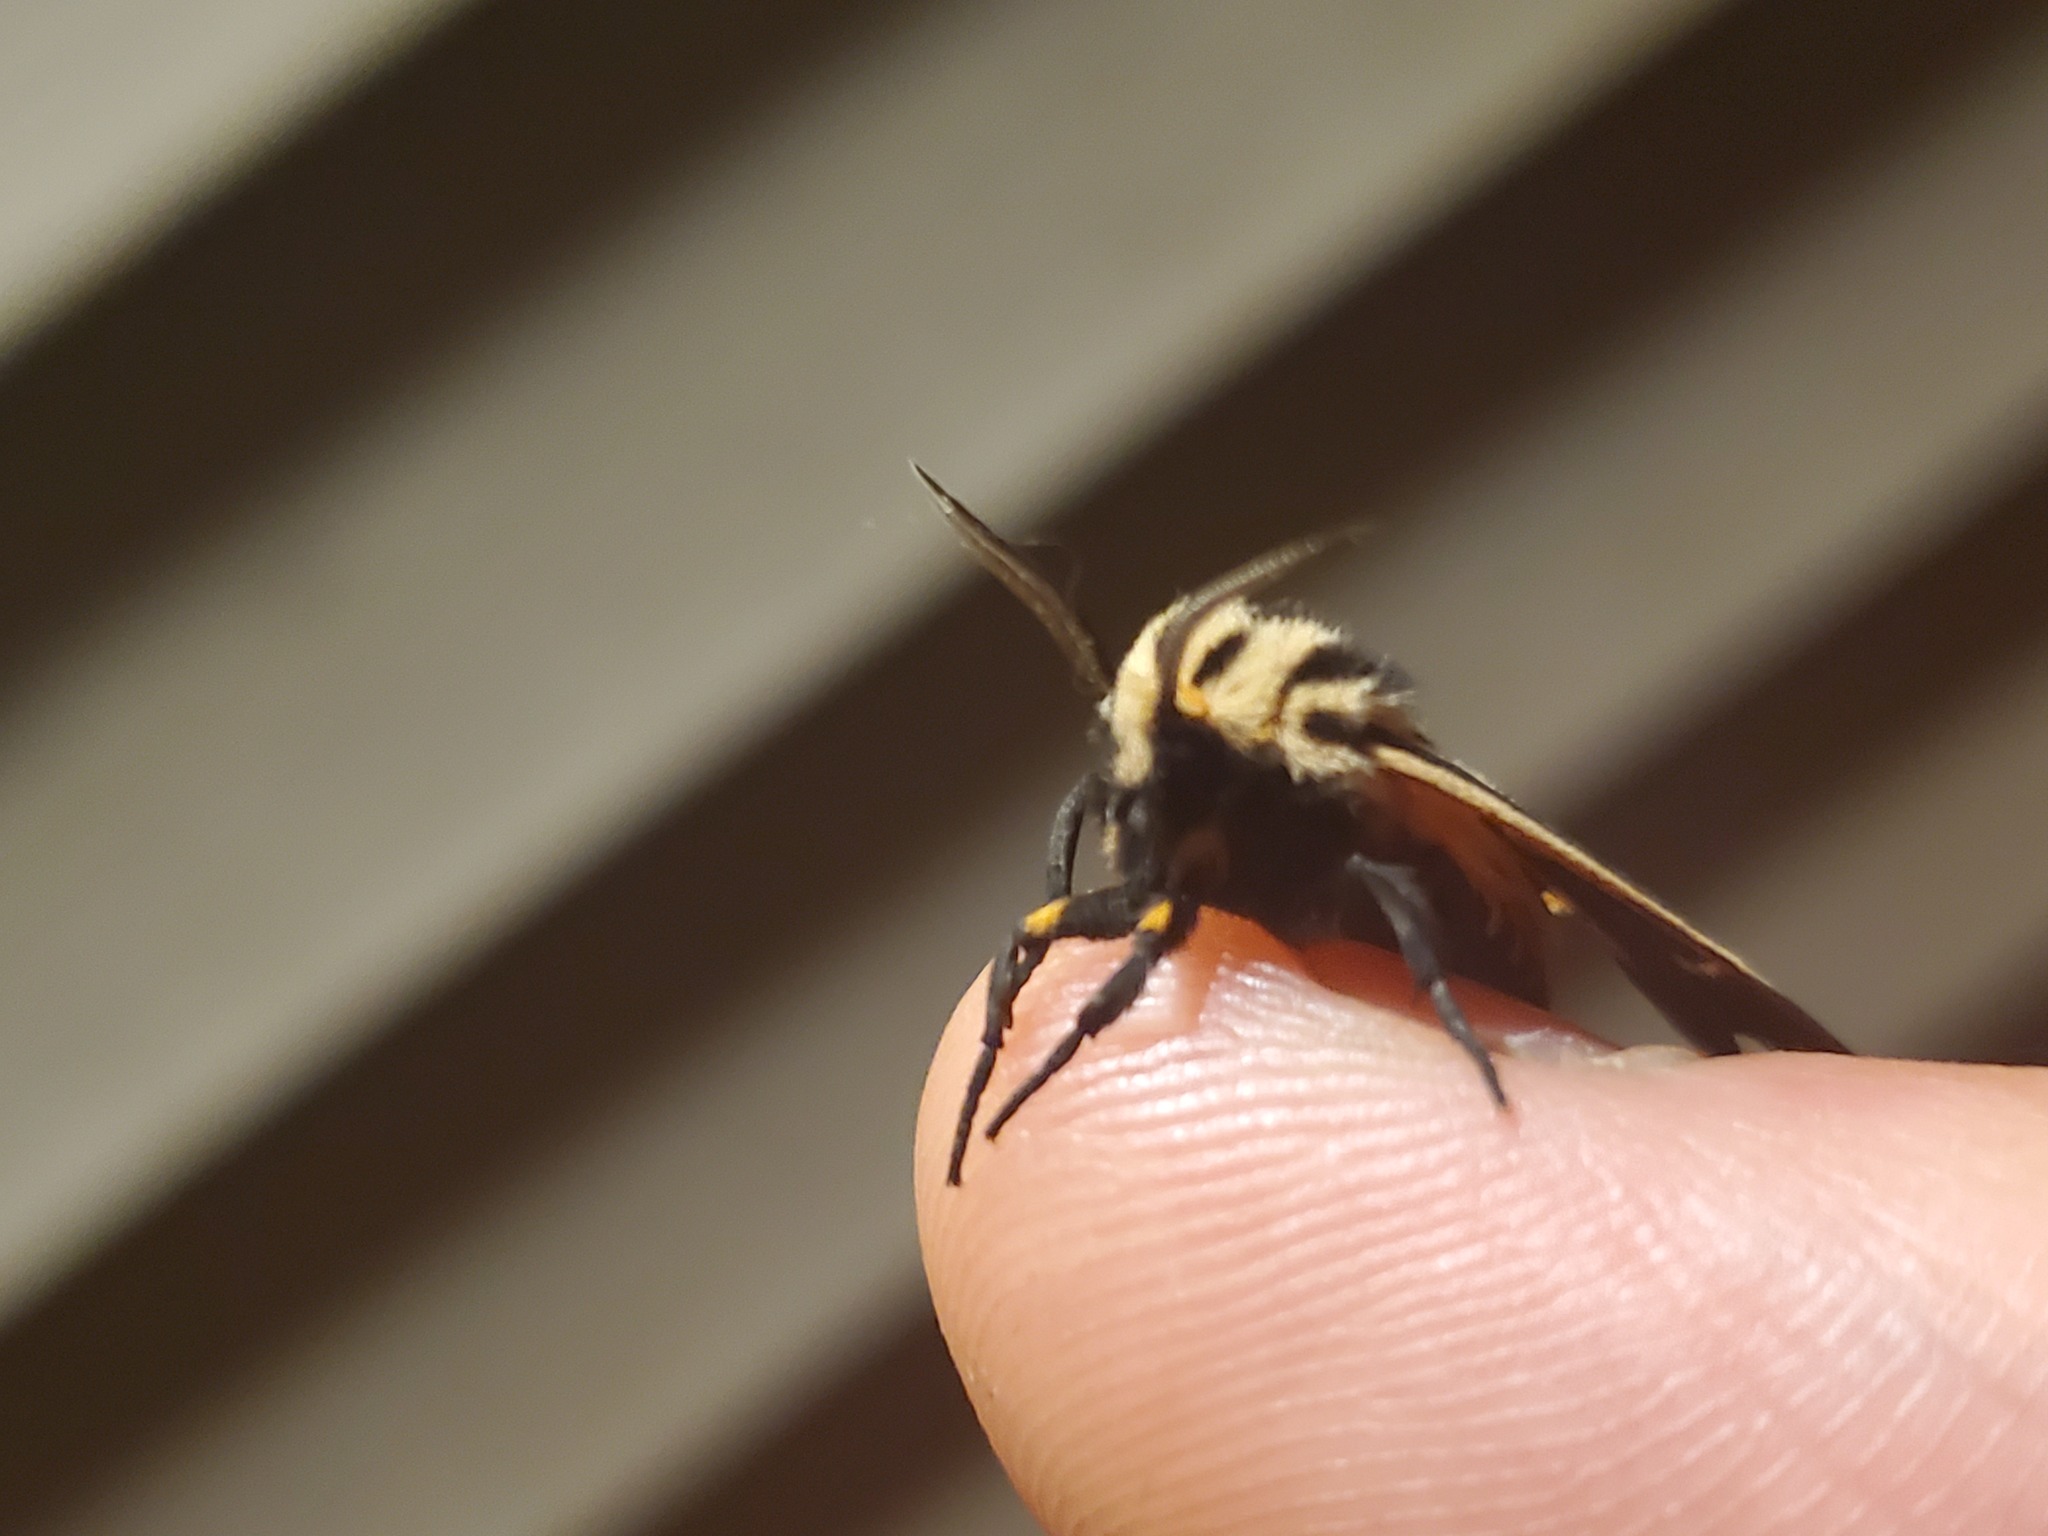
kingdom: Animalia
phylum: Arthropoda
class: Insecta
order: Lepidoptera
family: Erebidae
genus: Apantesis
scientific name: Apantesis phalerata
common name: Harnessed tiger moth
